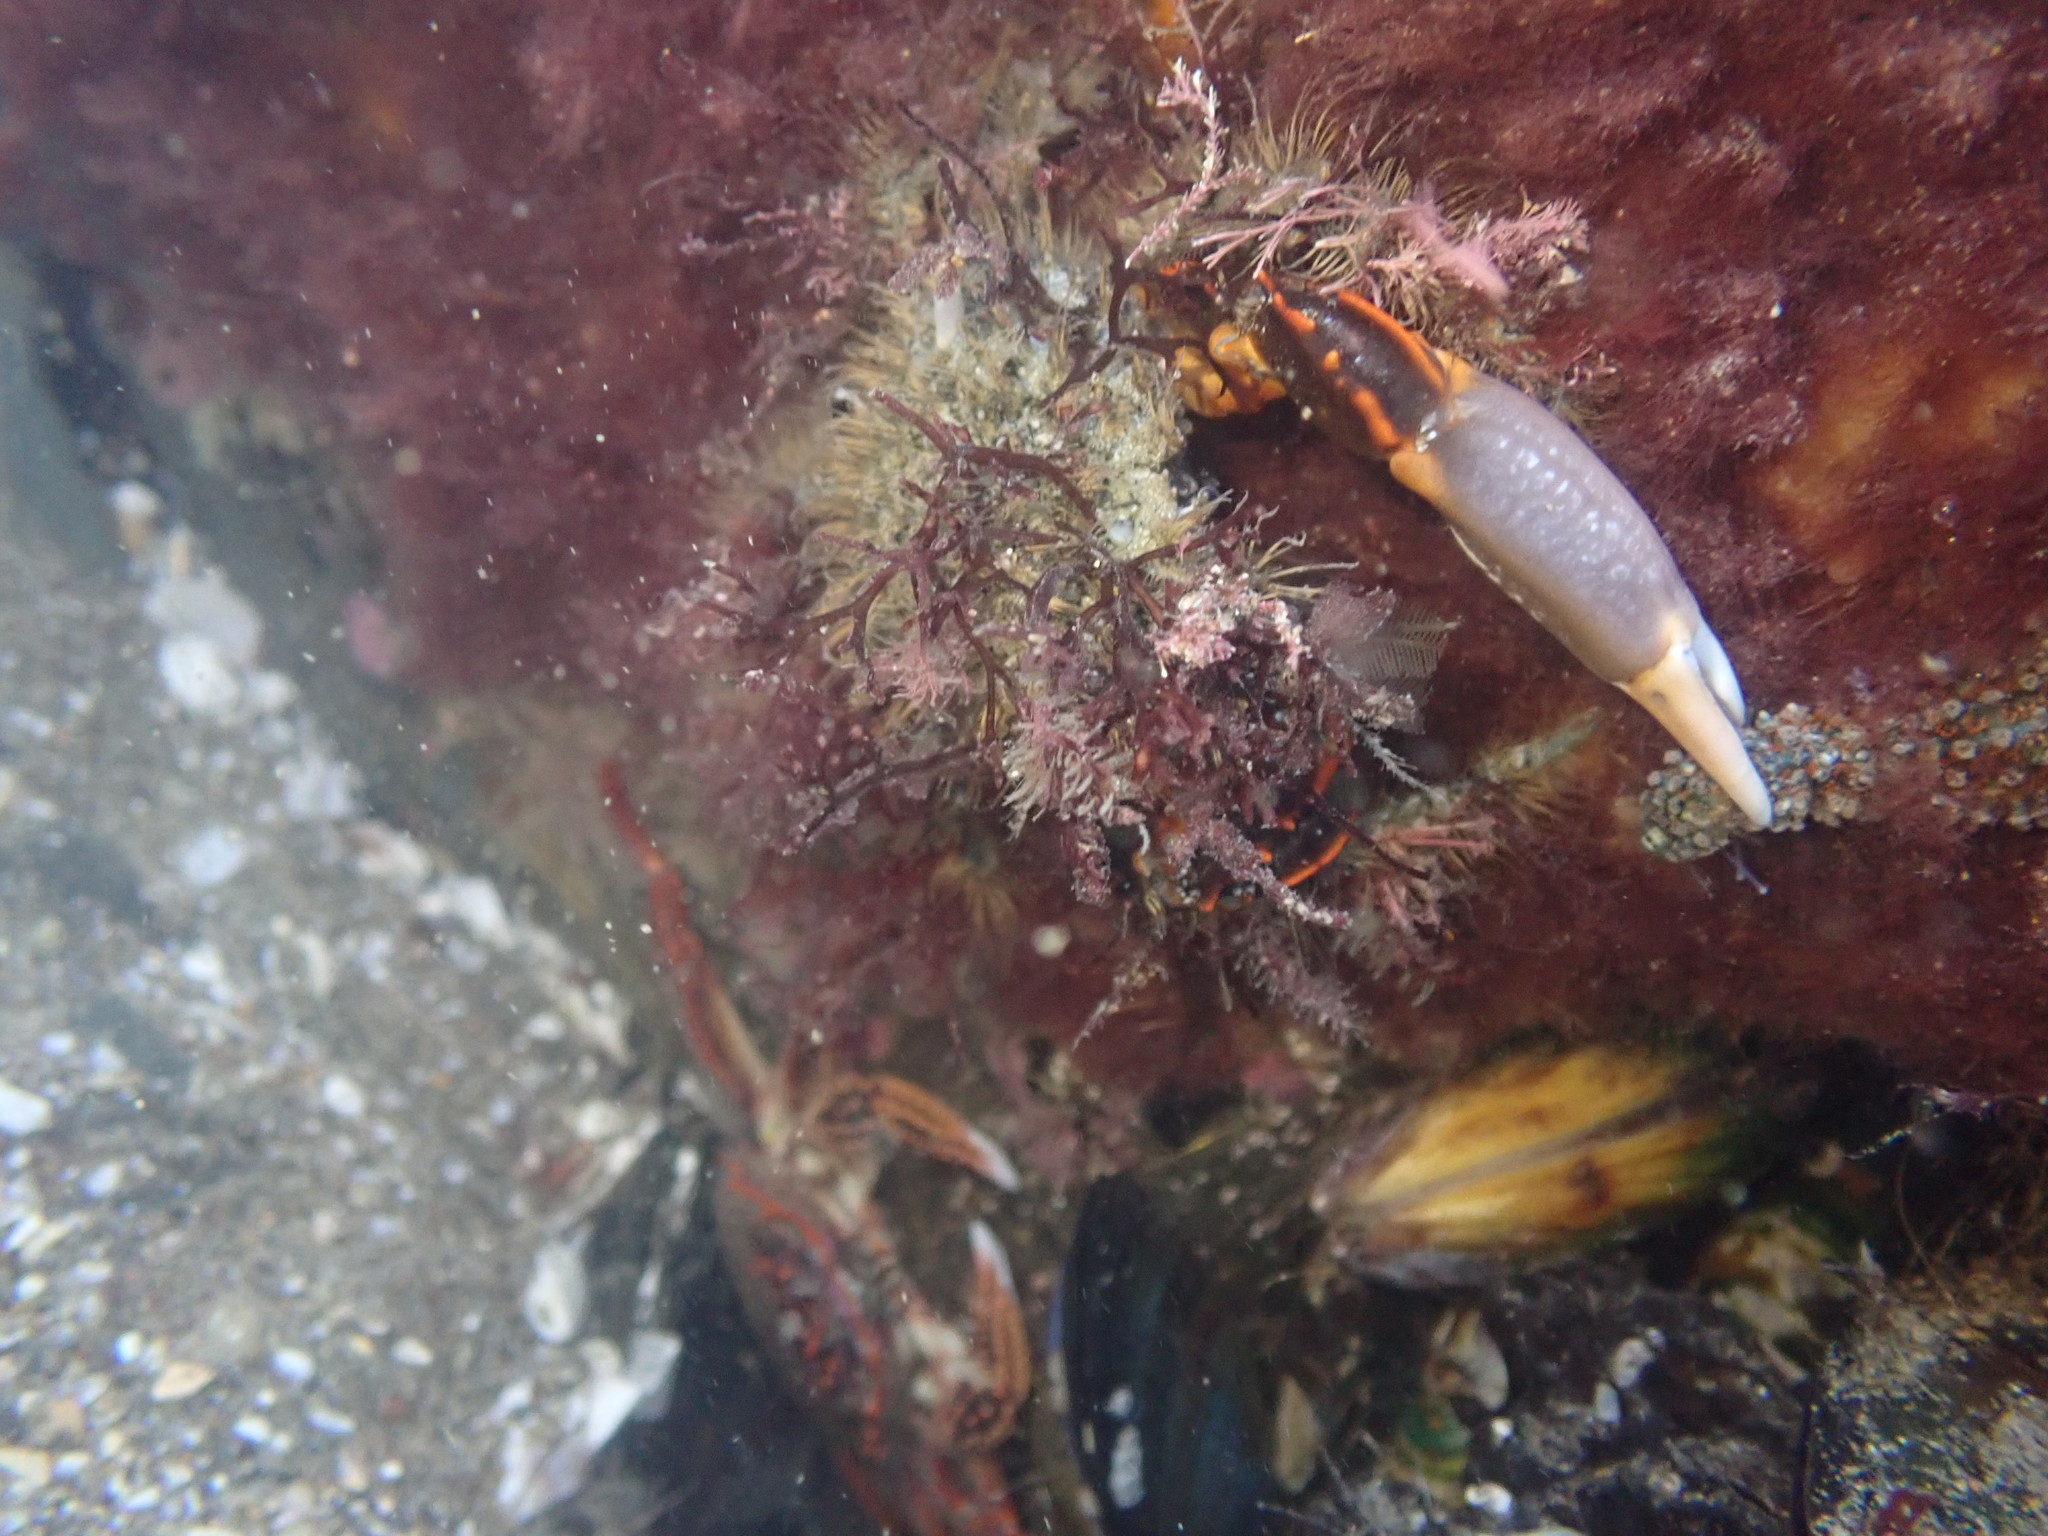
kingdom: Animalia
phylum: Arthropoda
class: Malacostraca
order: Decapoda
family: Majidae
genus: Notomithrax
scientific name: Notomithrax ursus
